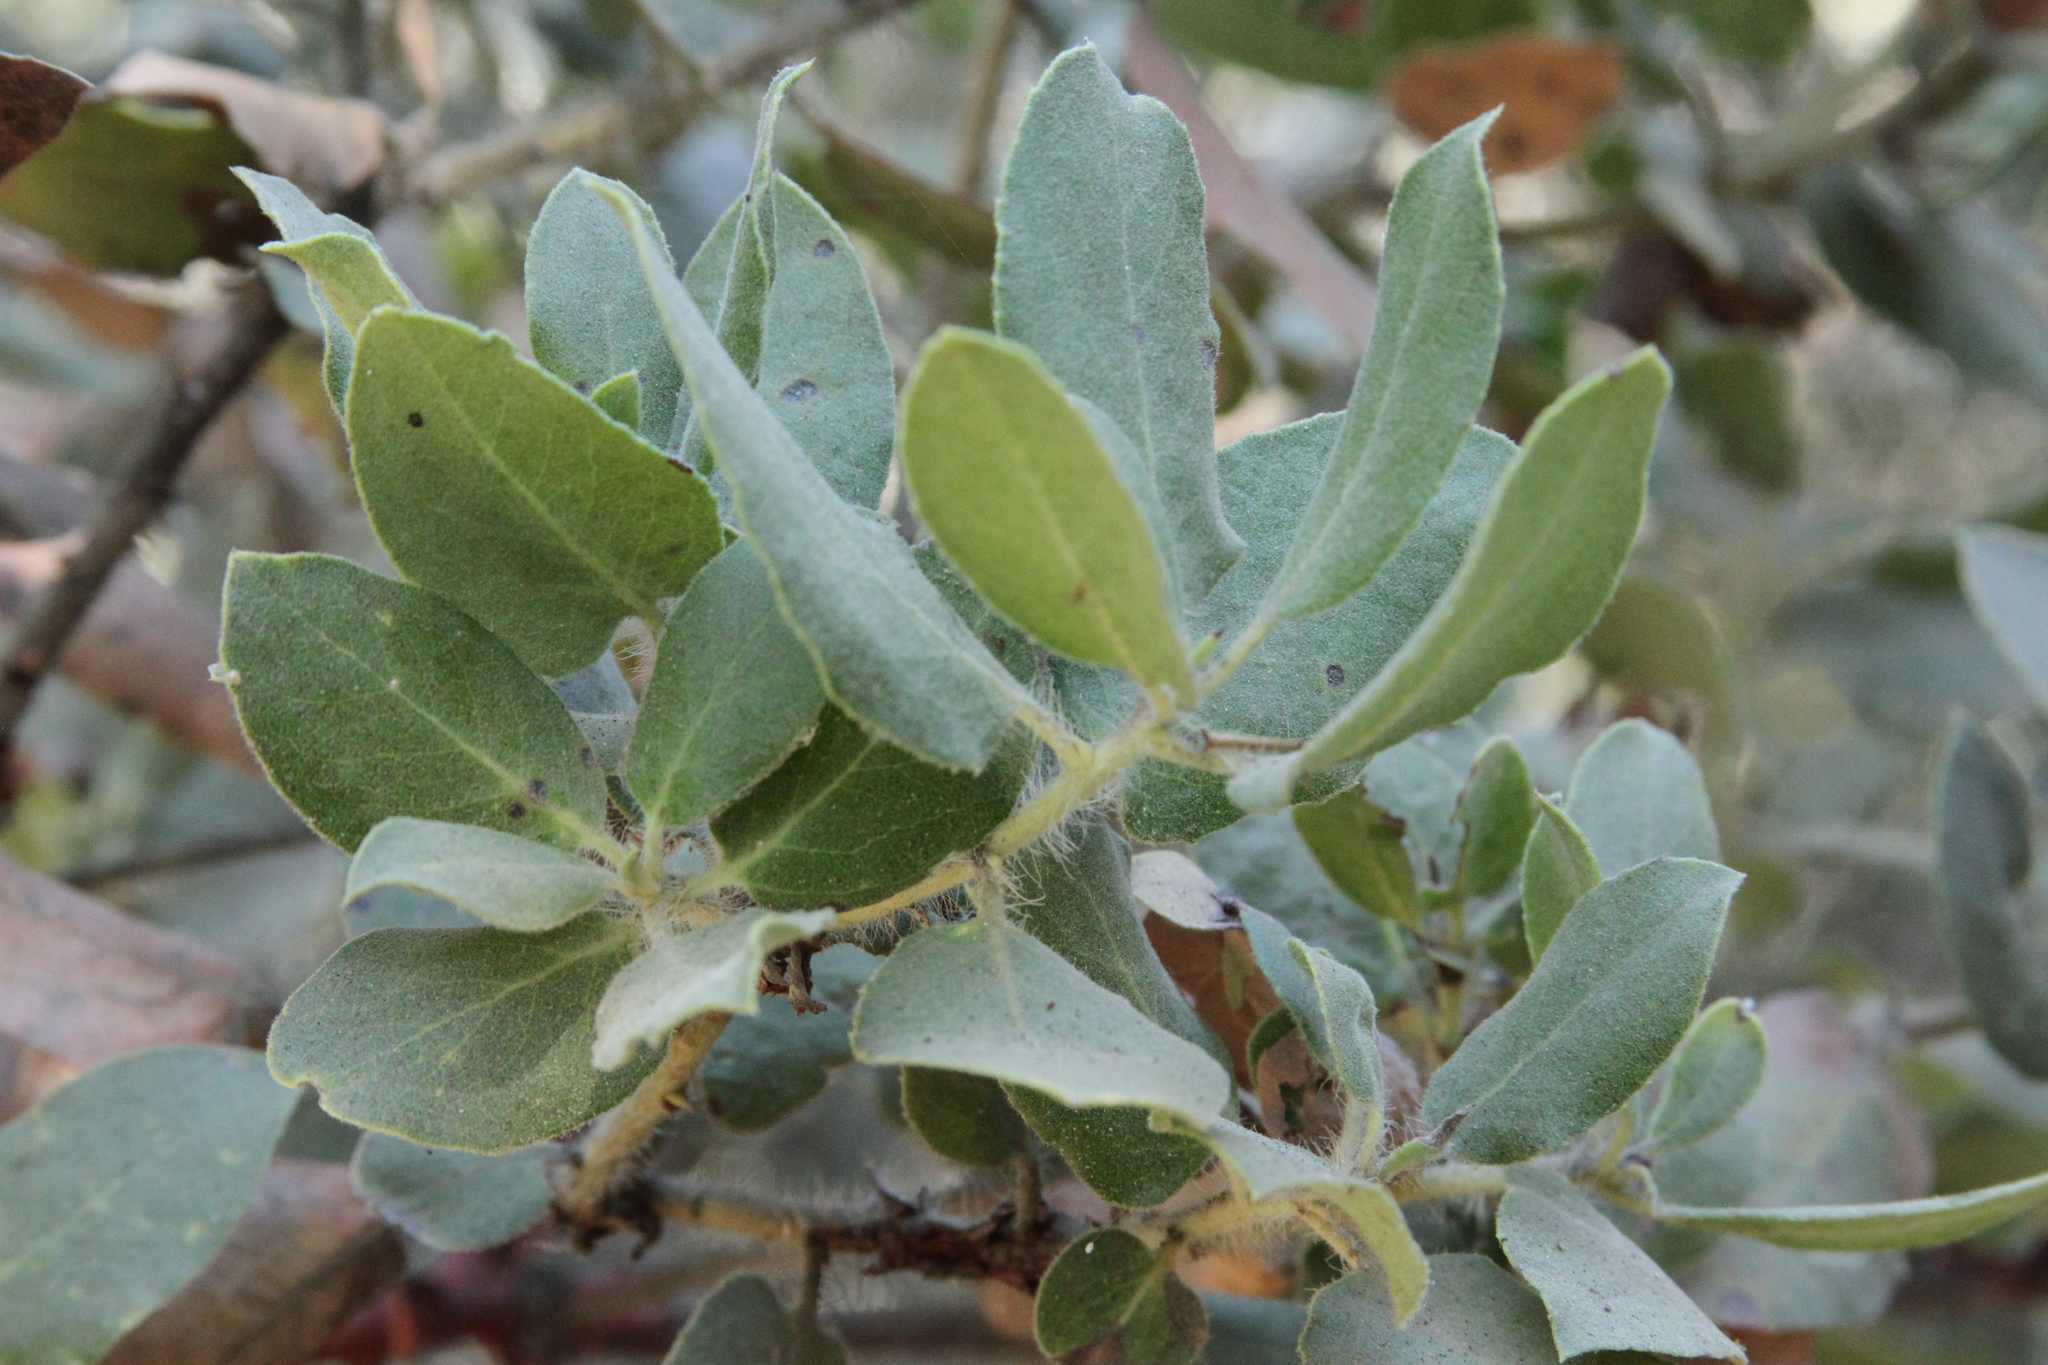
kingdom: Plantae
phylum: Tracheophyta
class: Magnoliopsida
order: Ericales
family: Ericaceae
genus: Arctostaphylos
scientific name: Arctostaphylos crustacea
